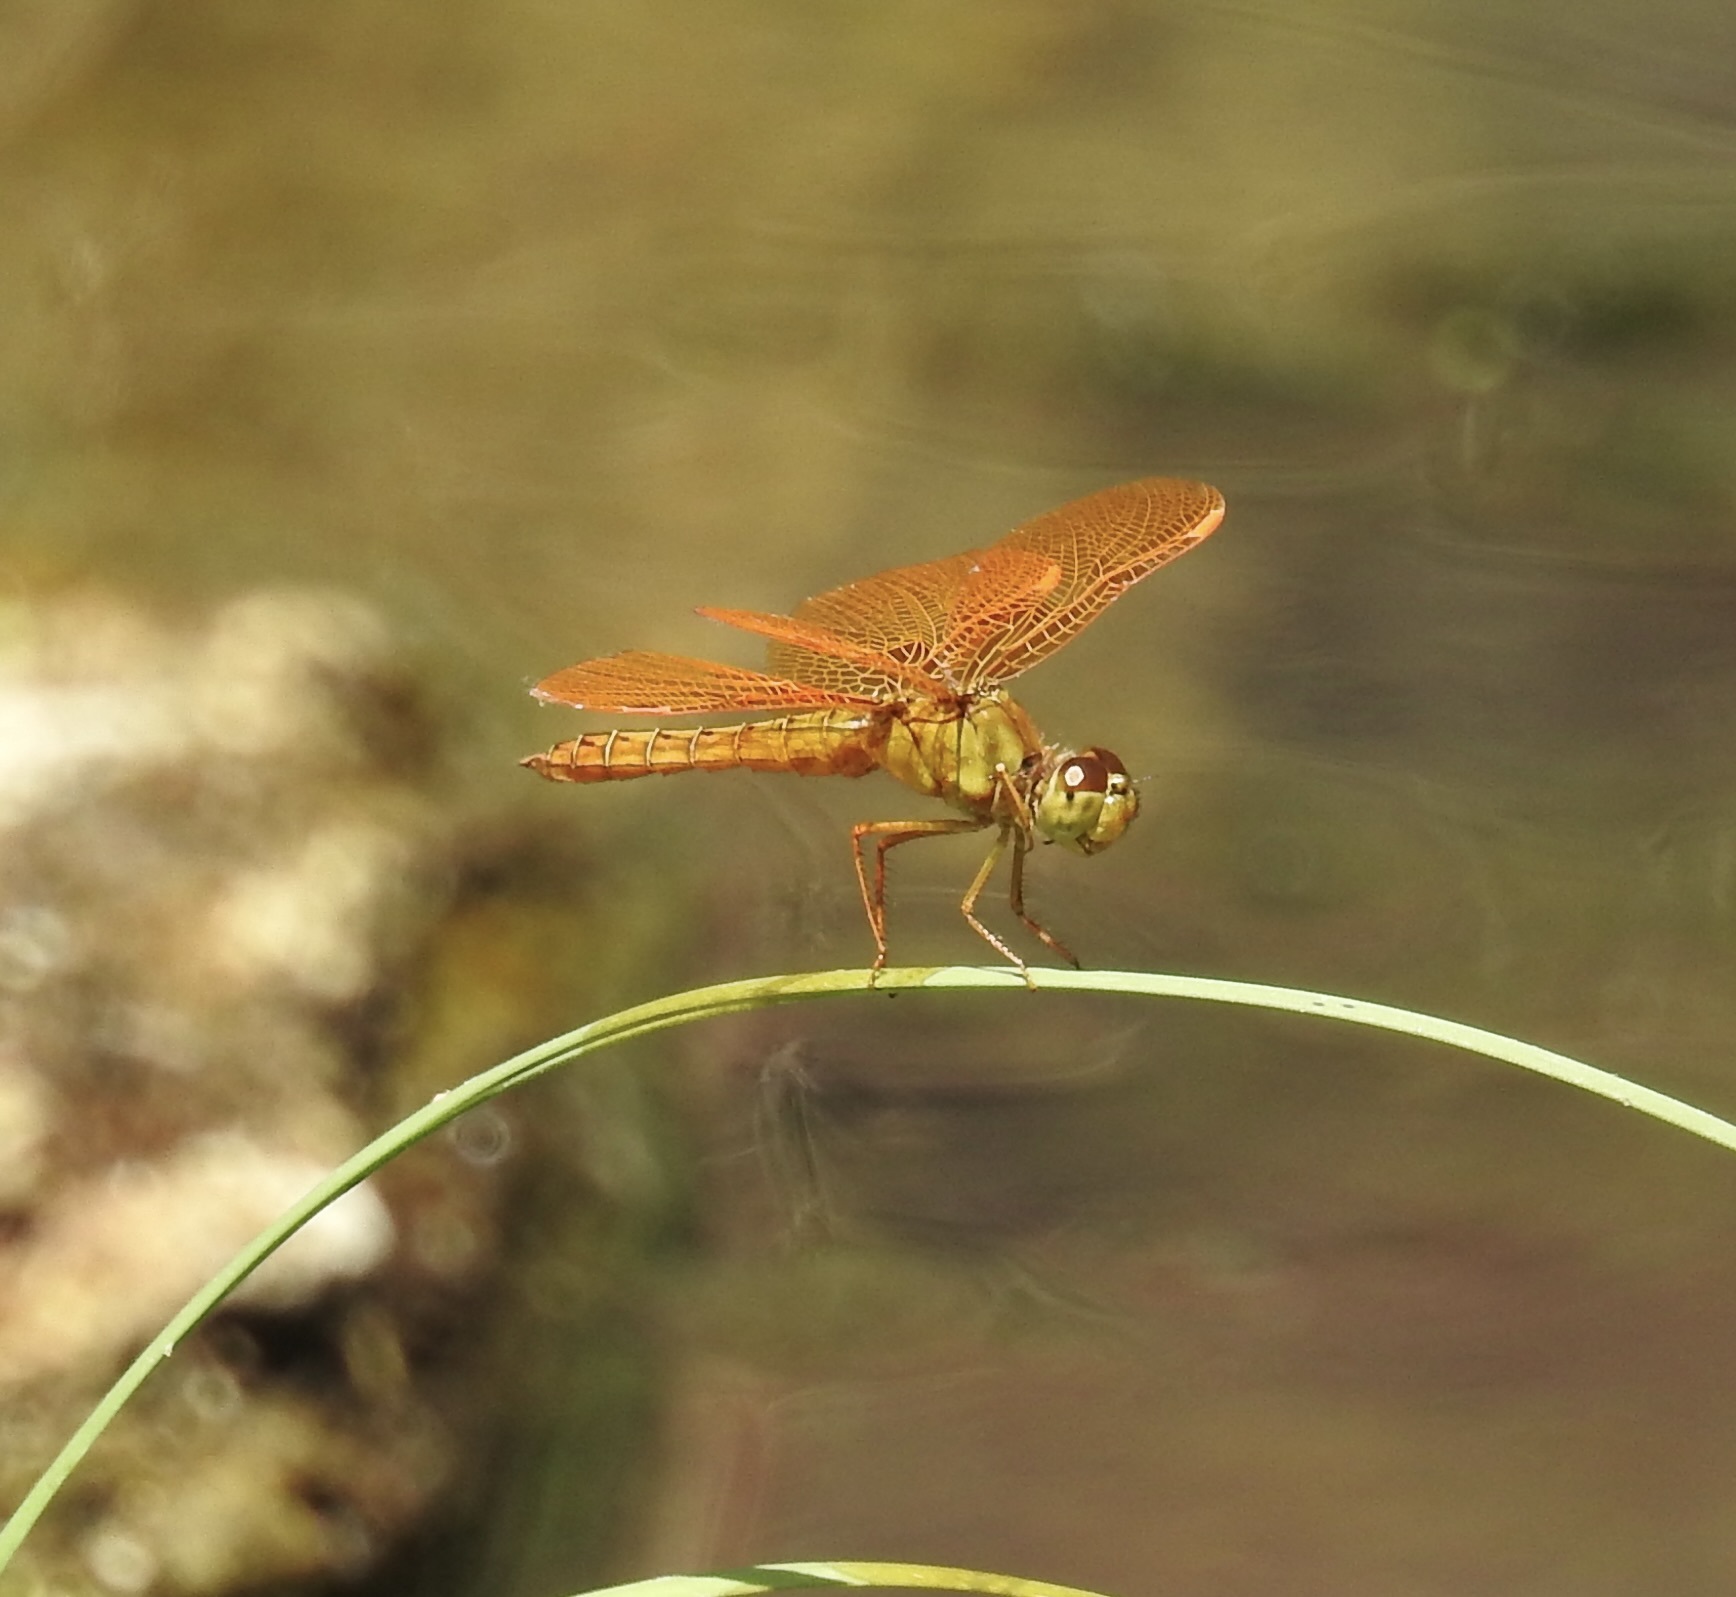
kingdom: Animalia
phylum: Arthropoda
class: Insecta
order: Odonata
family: Libellulidae
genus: Perithemis
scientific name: Perithemis intensa
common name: Mexican amberwing
